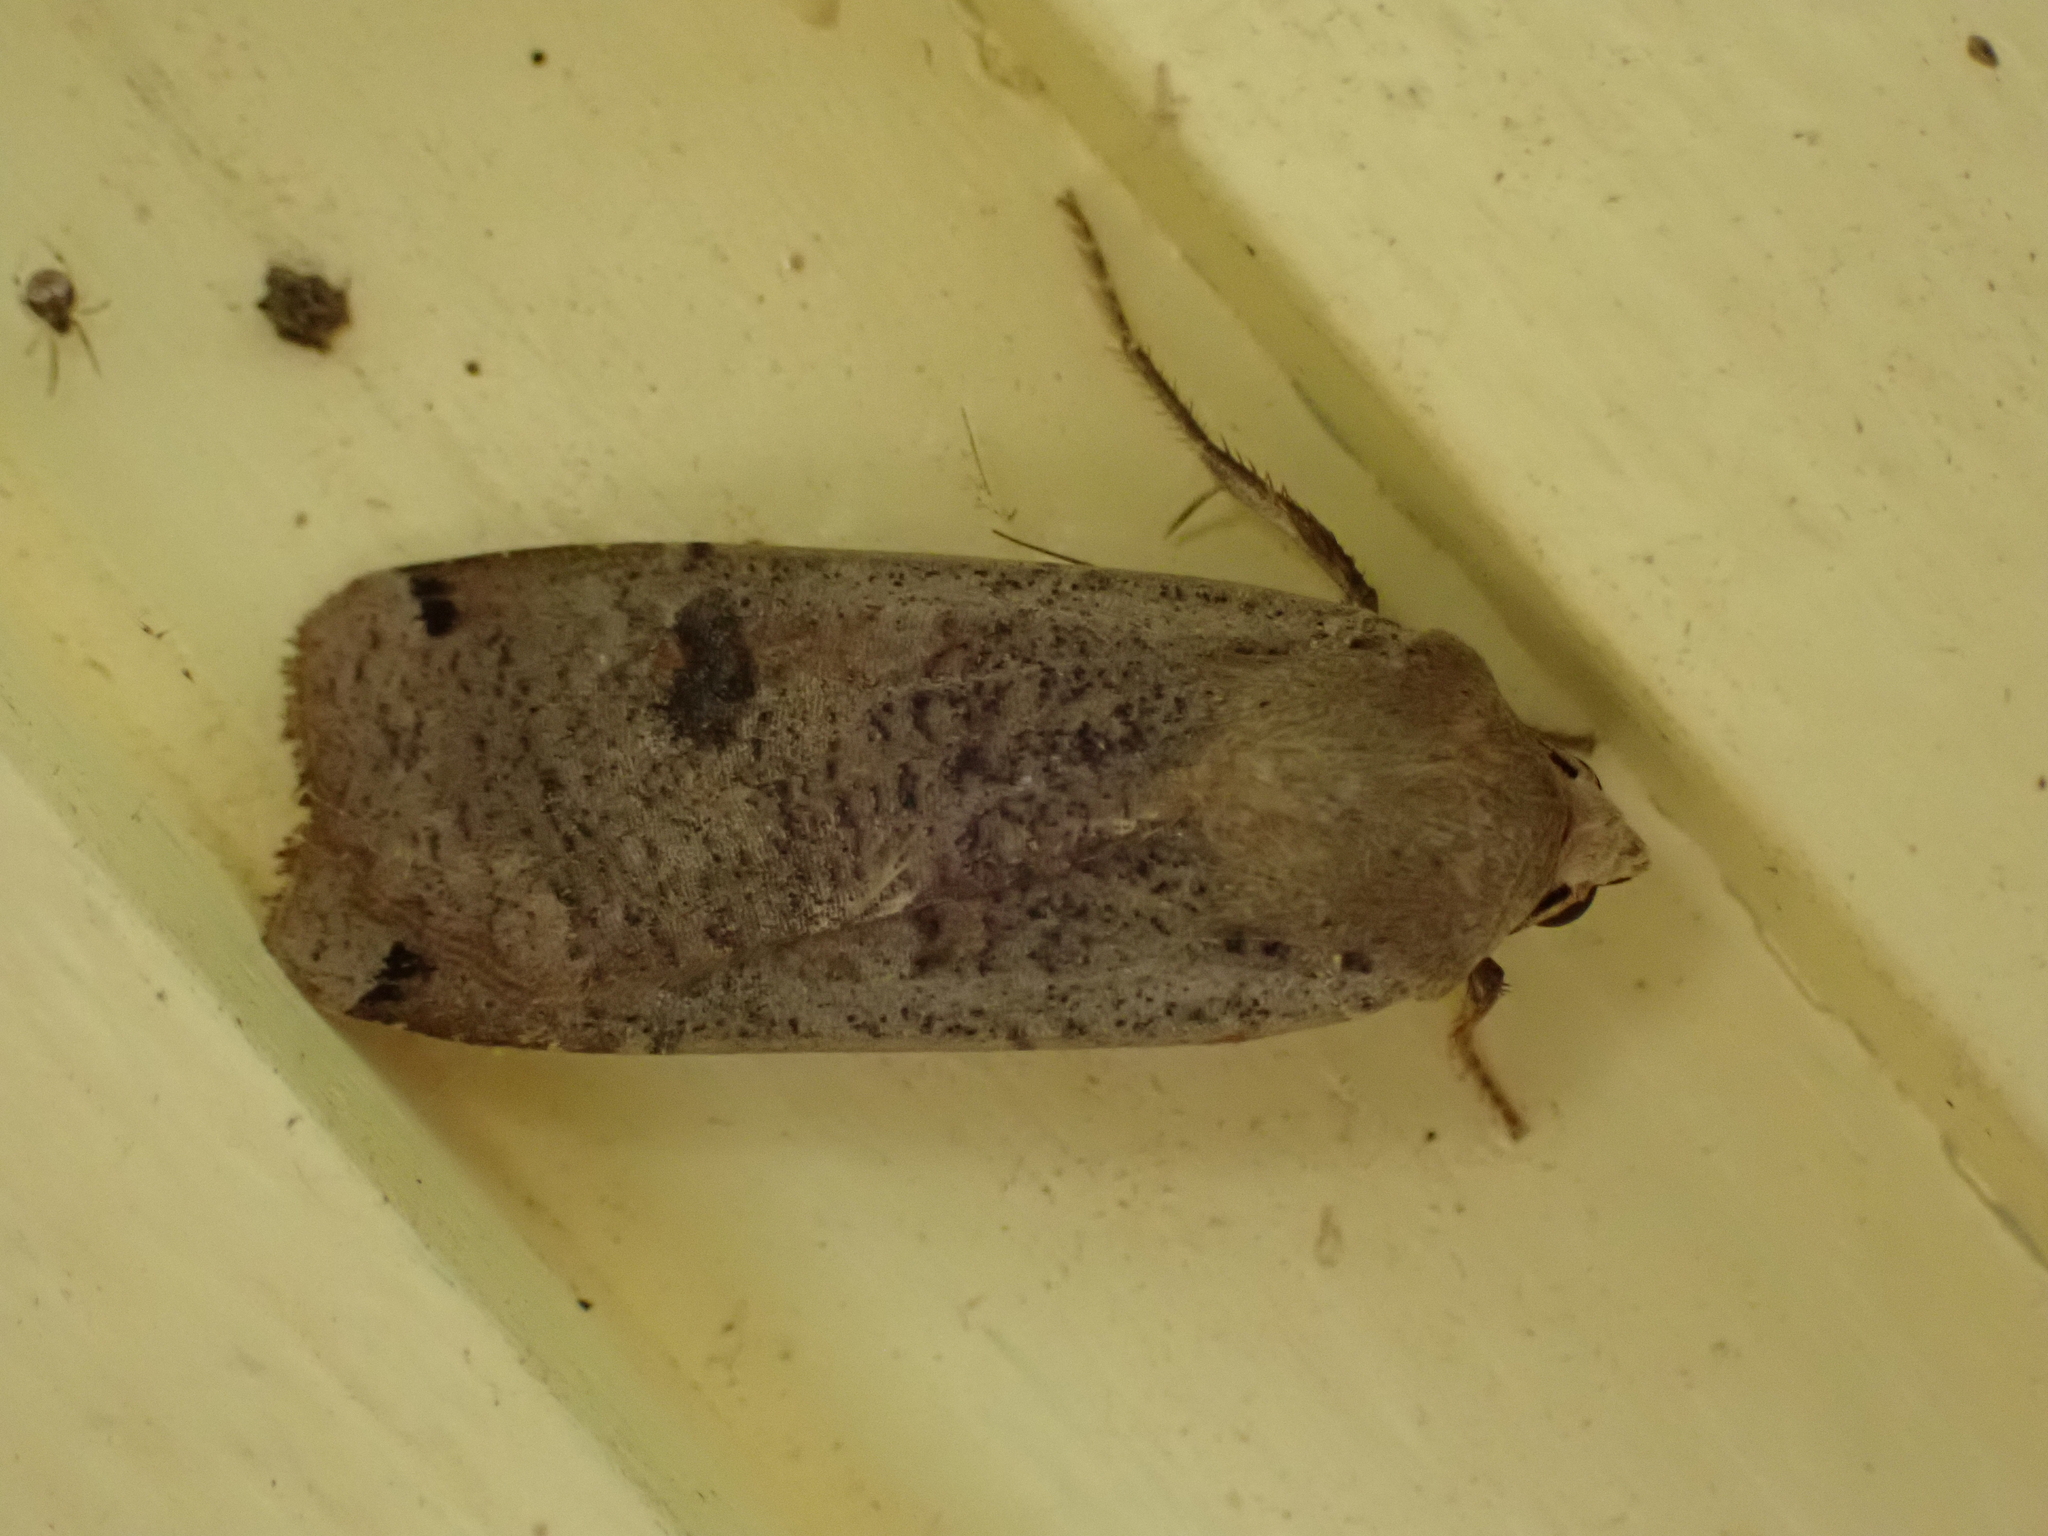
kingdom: Animalia
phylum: Arthropoda
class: Insecta
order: Lepidoptera
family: Noctuidae
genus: Noctua
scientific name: Noctua pronuba
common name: Large yellow underwing
